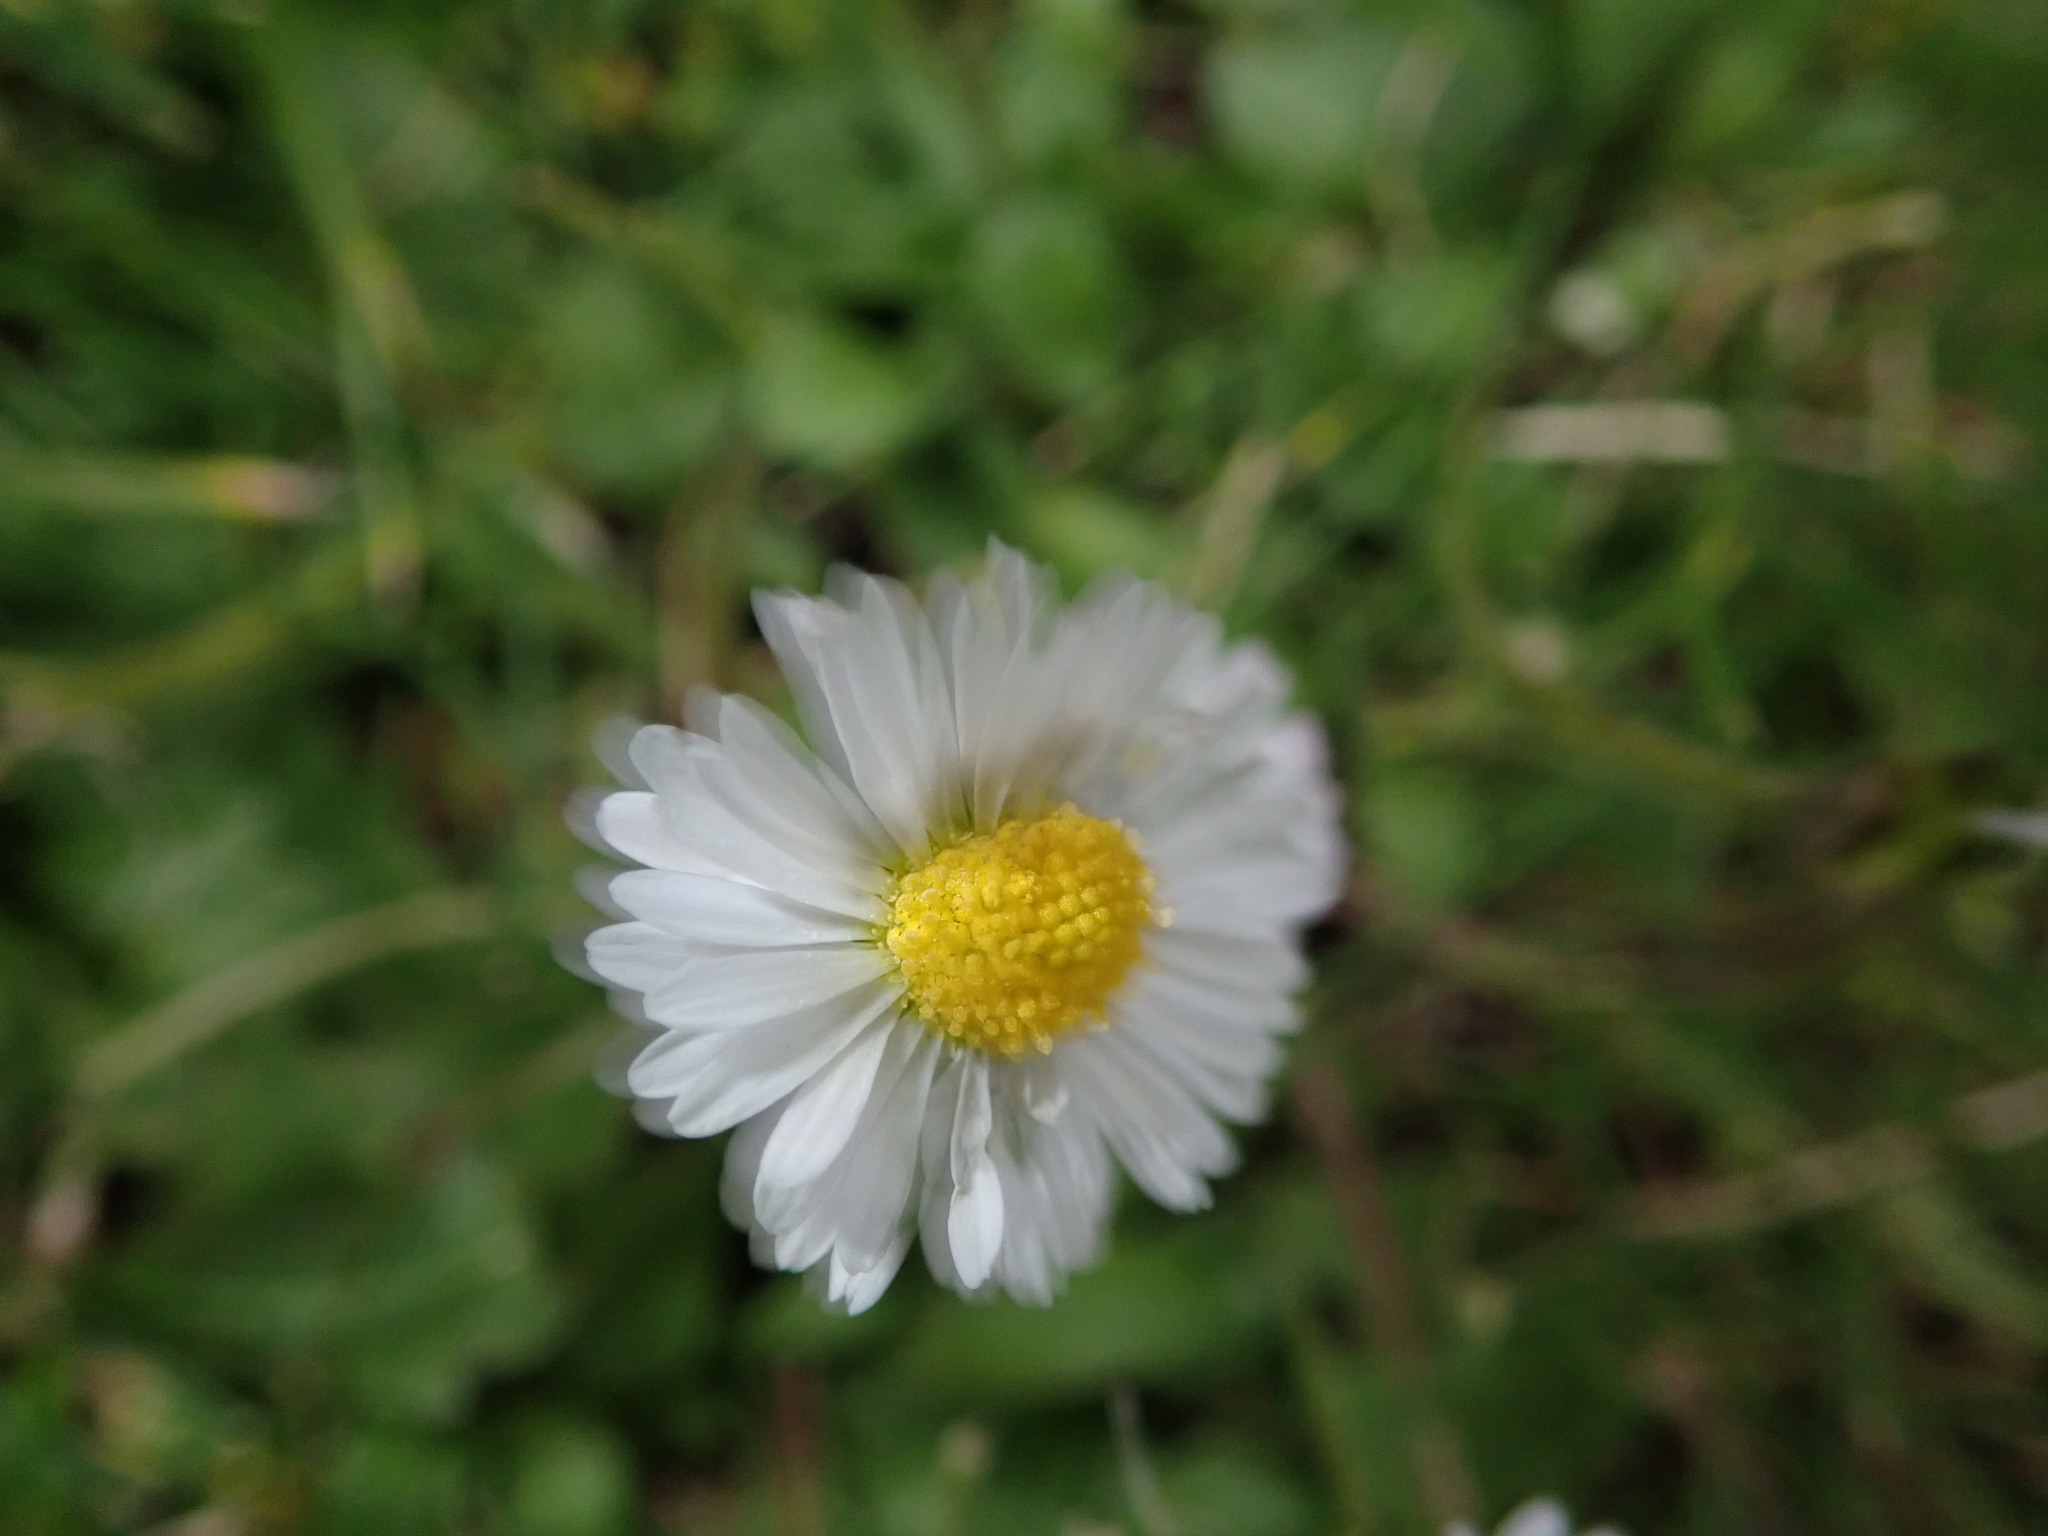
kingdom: Plantae
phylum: Tracheophyta
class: Magnoliopsida
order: Asterales
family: Asteraceae
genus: Bellis
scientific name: Bellis perennis
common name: Lawndaisy
